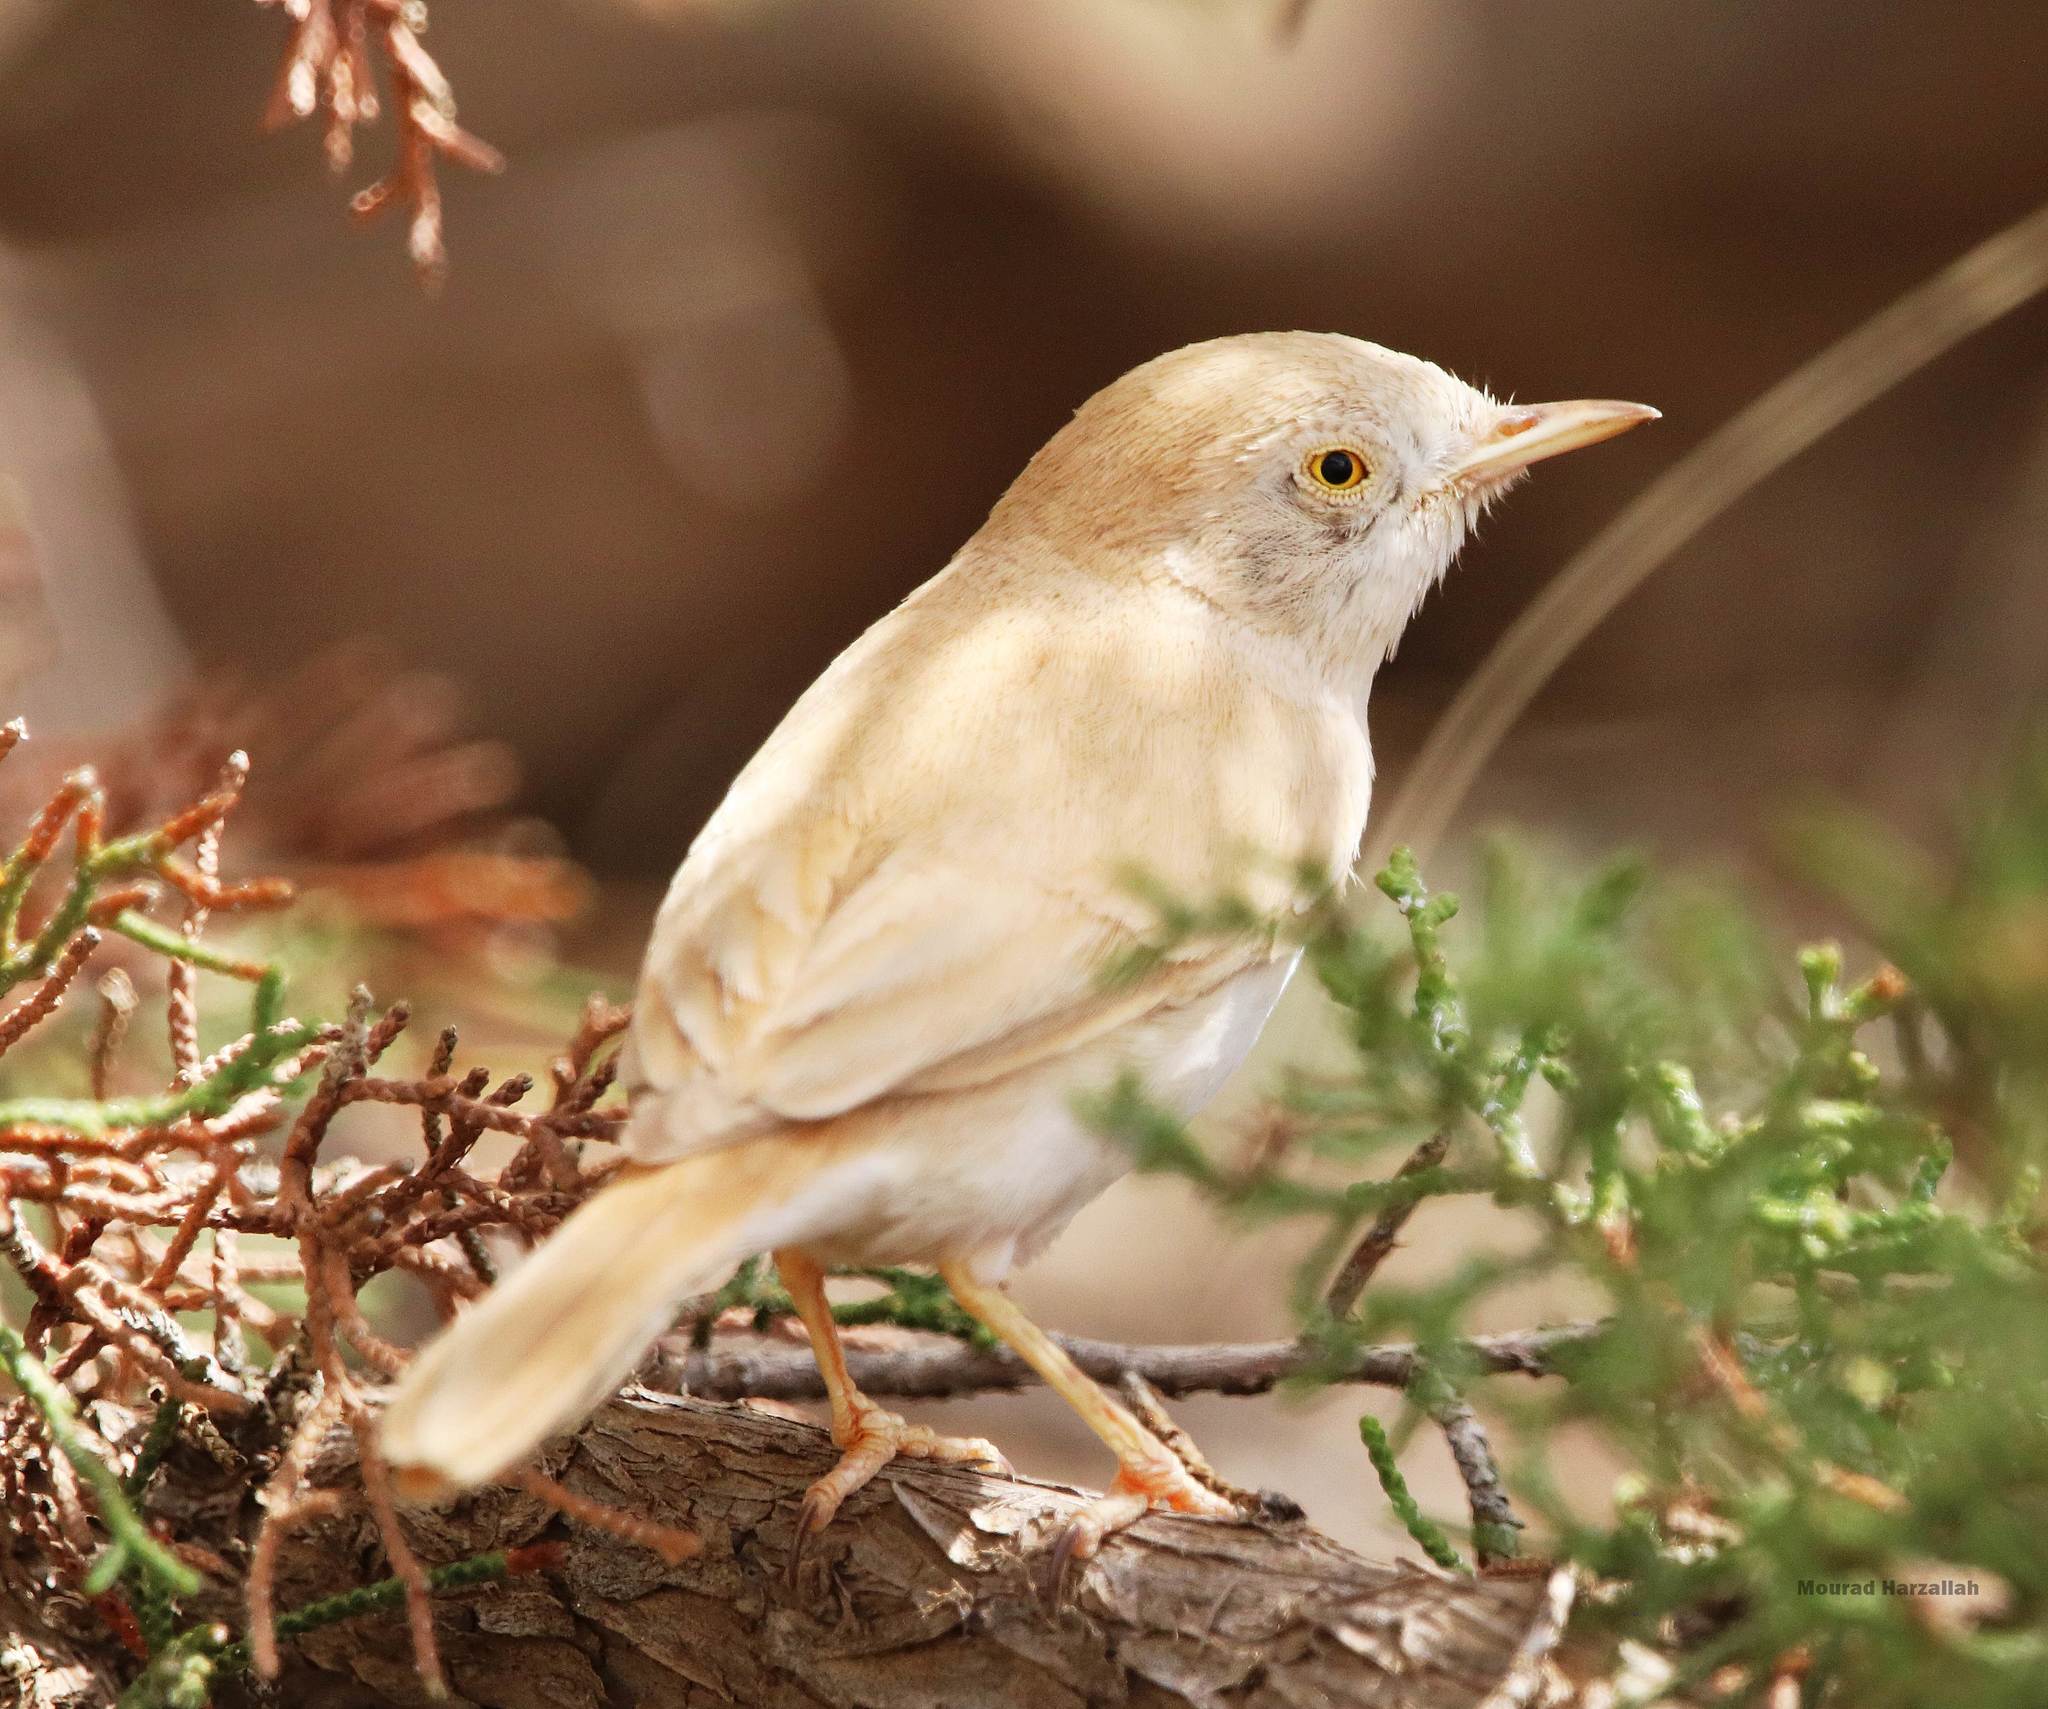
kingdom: Animalia
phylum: Chordata
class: Aves
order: Passeriformes
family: Sylviidae
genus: Sylvia
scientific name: Sylvia deserti
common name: African desert warbler
